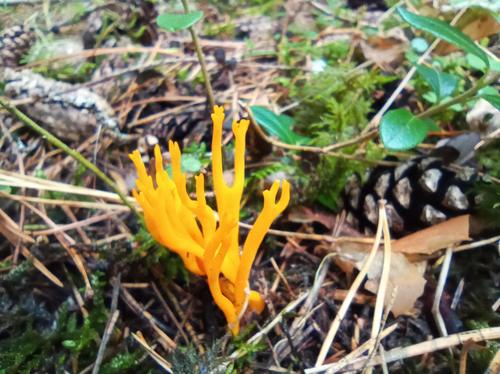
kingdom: Fungi
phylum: Basidiomycota
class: Dacrymycetes
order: Dacrymycetales
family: Dacrymycetaceae
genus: Calocera
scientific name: Calocera viscosa
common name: Yellow stagshorn
